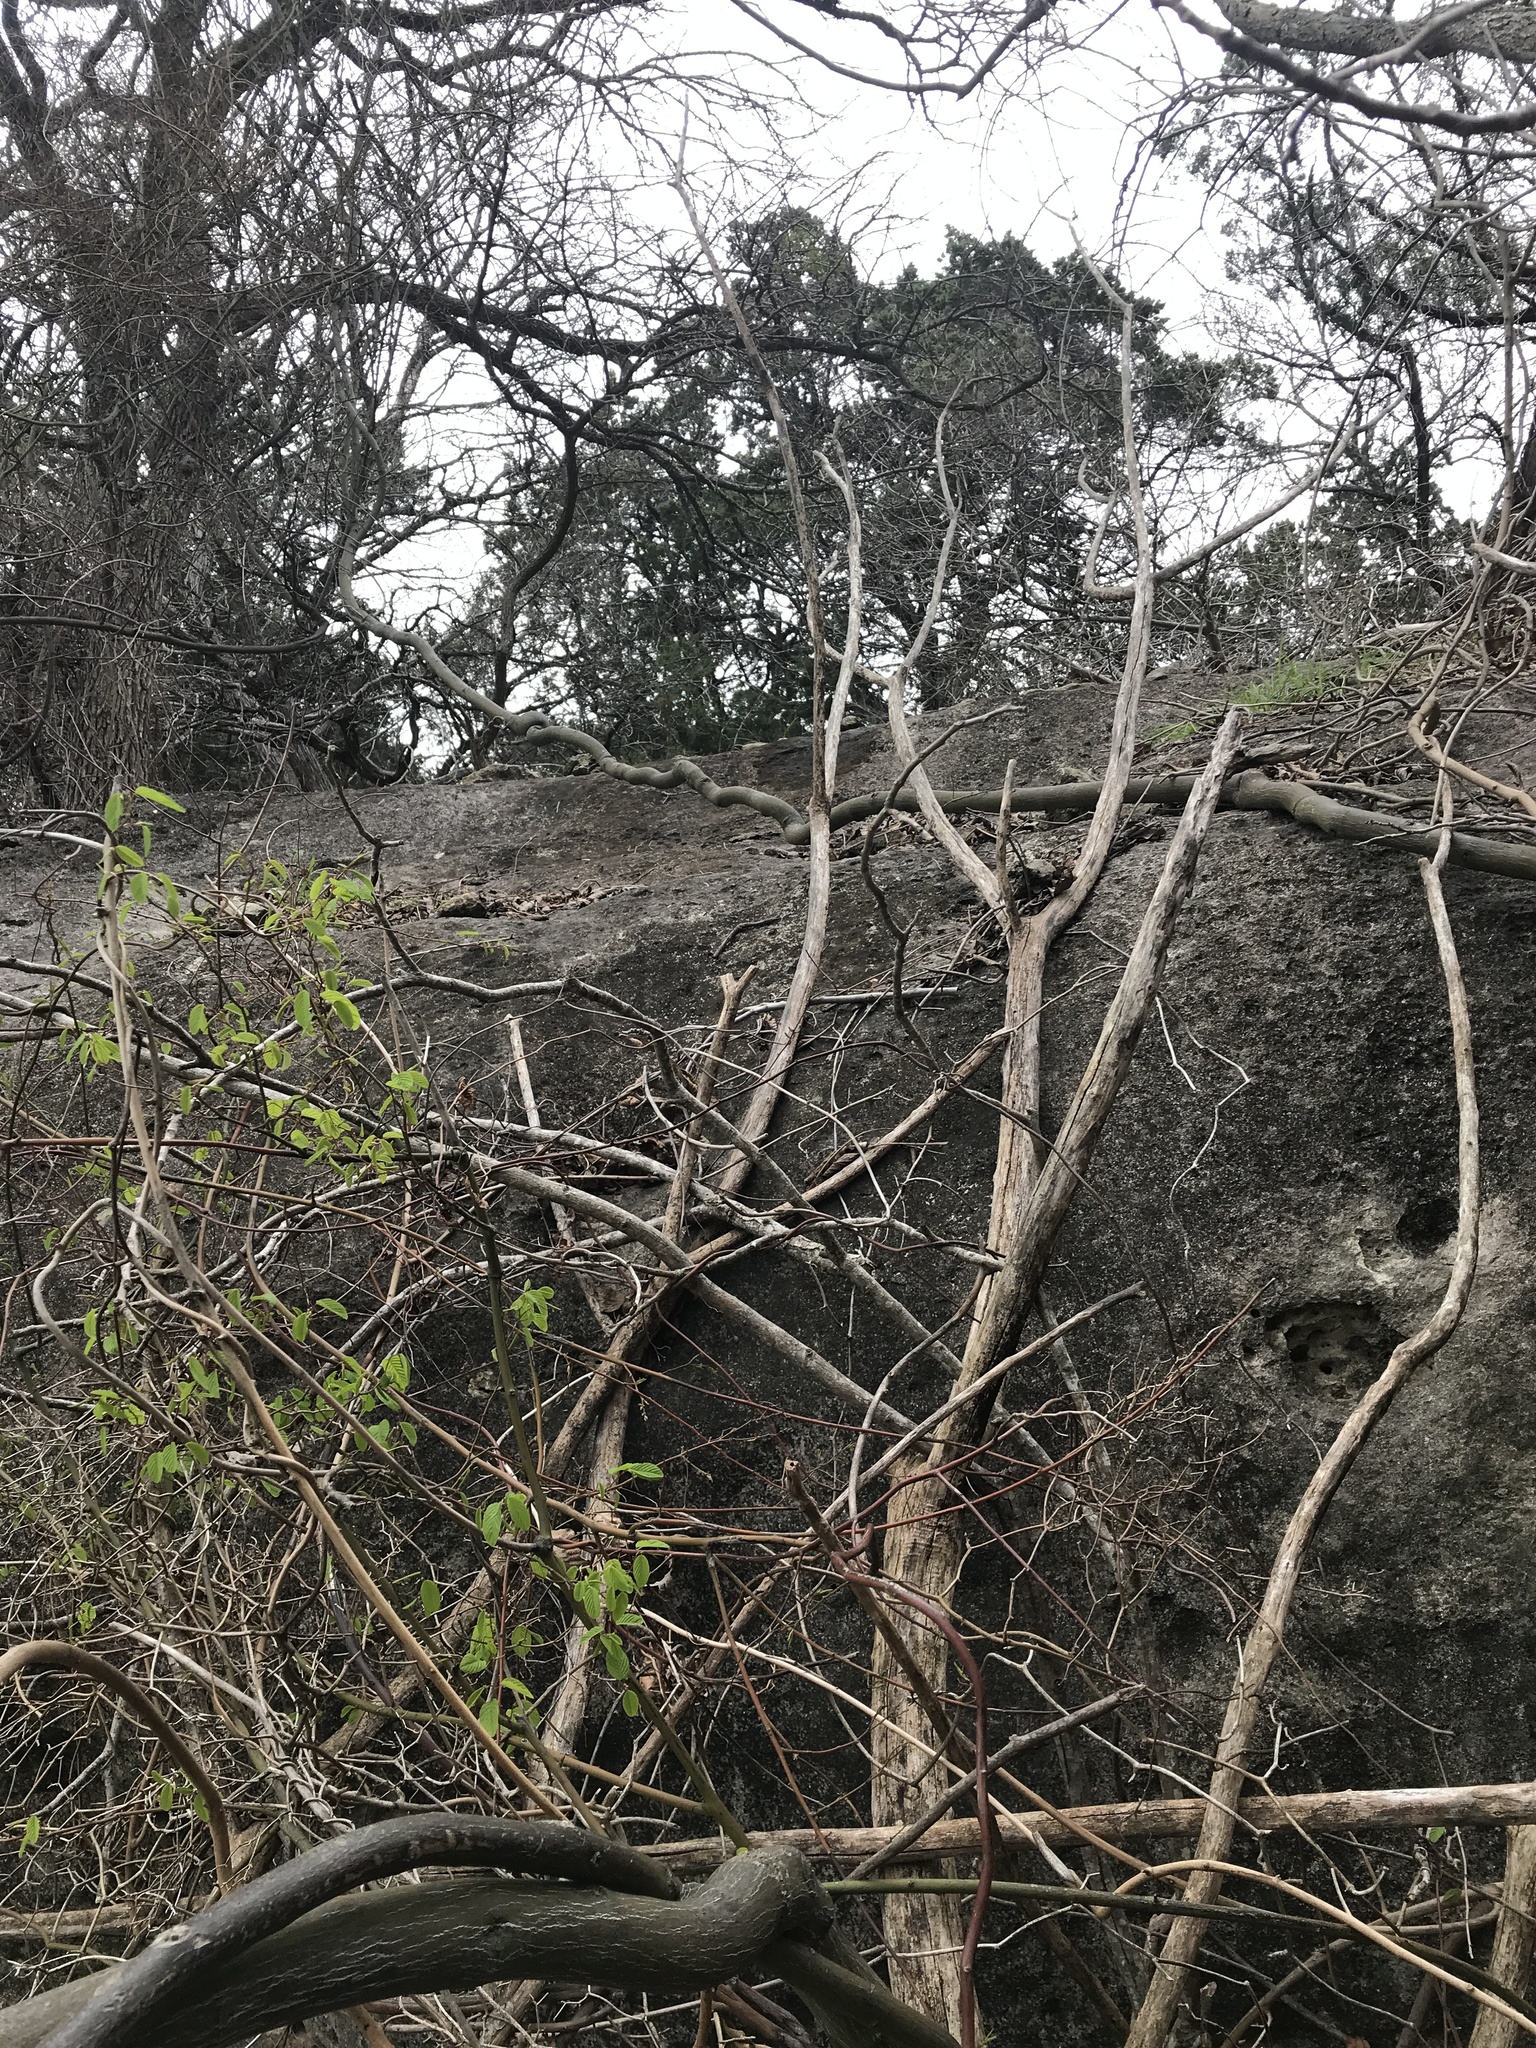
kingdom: Plantae
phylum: Tracheophyta
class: Magnoliopsida
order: Rosales
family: Rhamnaceae
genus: Berchemia
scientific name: Berchemia scandens
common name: Supplejack
